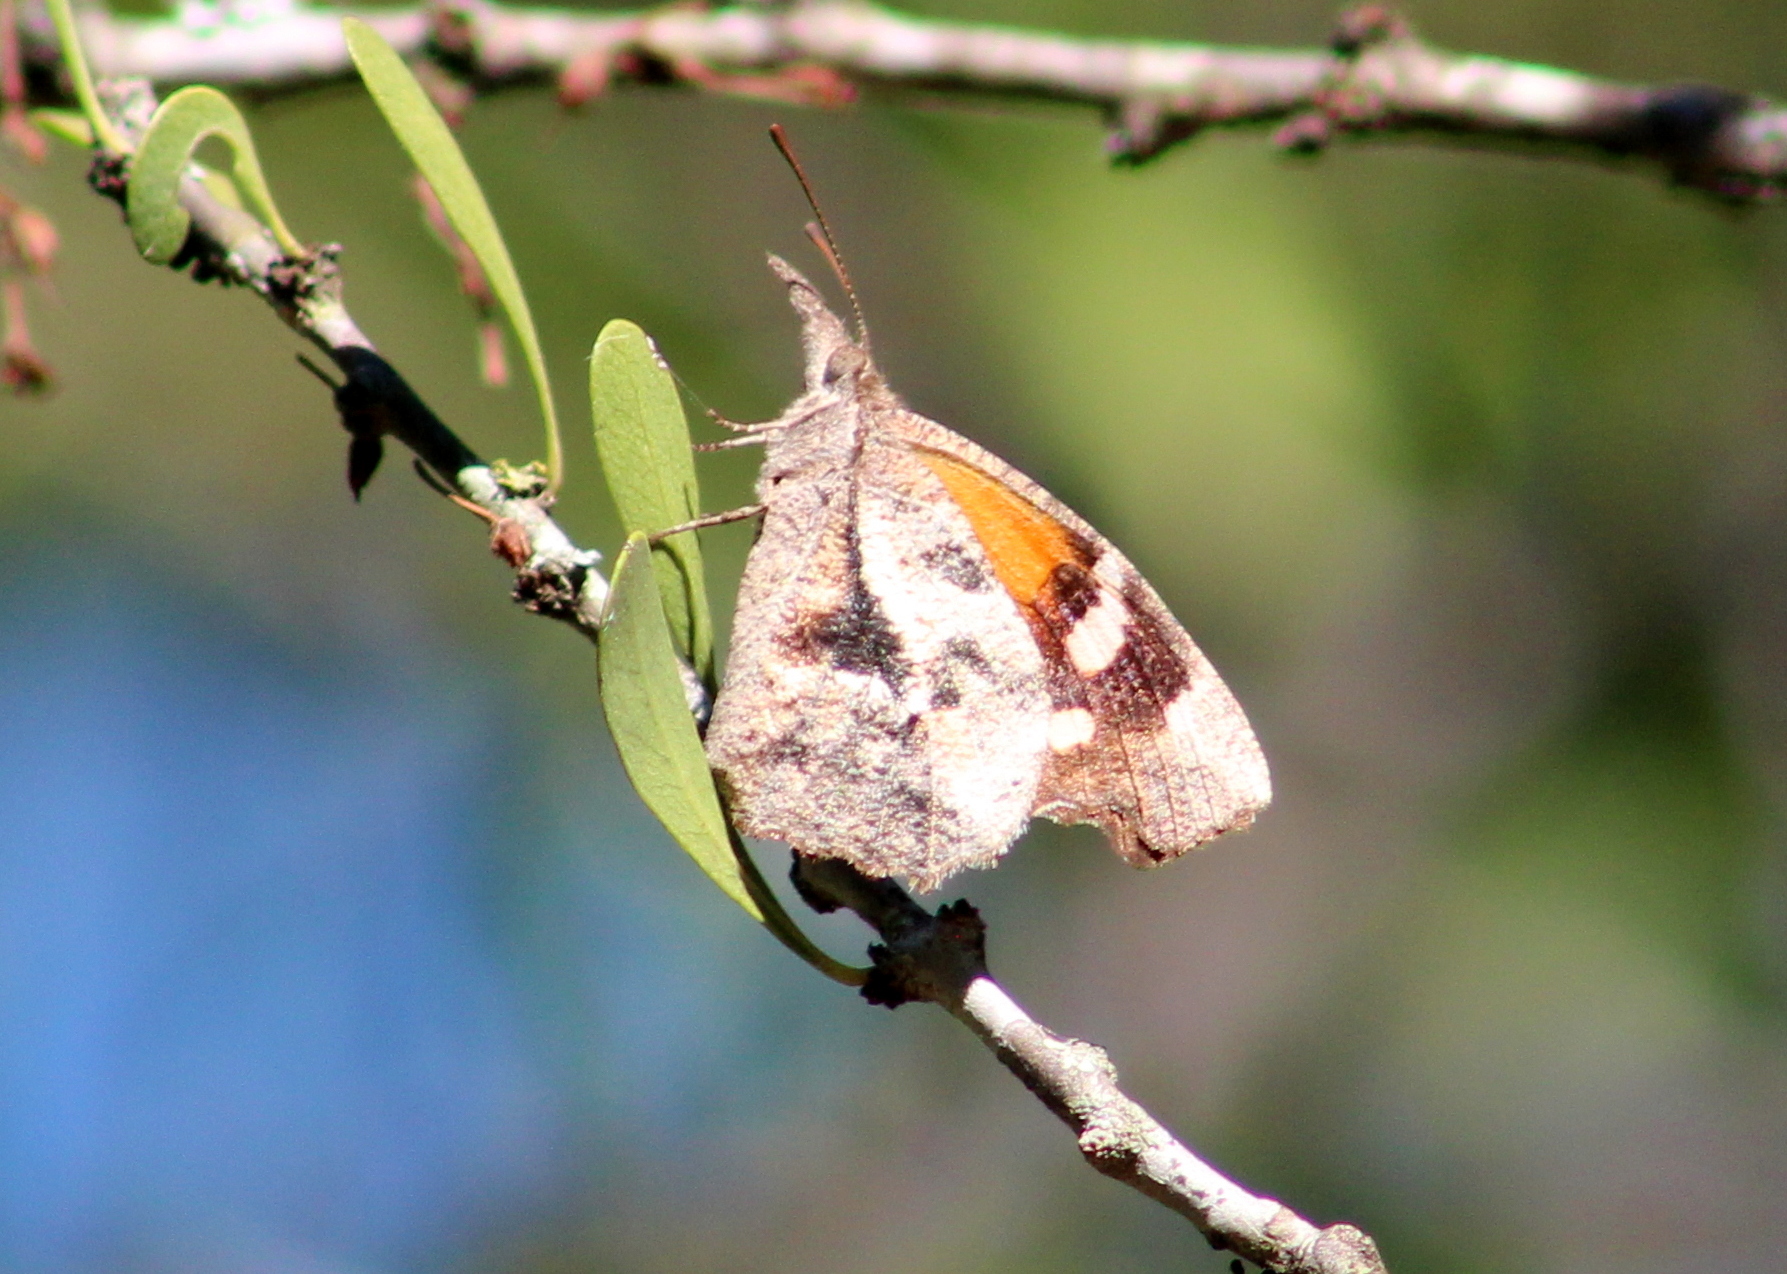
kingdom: Animalia
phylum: Arthropoda
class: Insecta
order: Lepidoptera
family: Nymphalidae
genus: Libytheana
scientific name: Libytheana carinenta
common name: American snout
